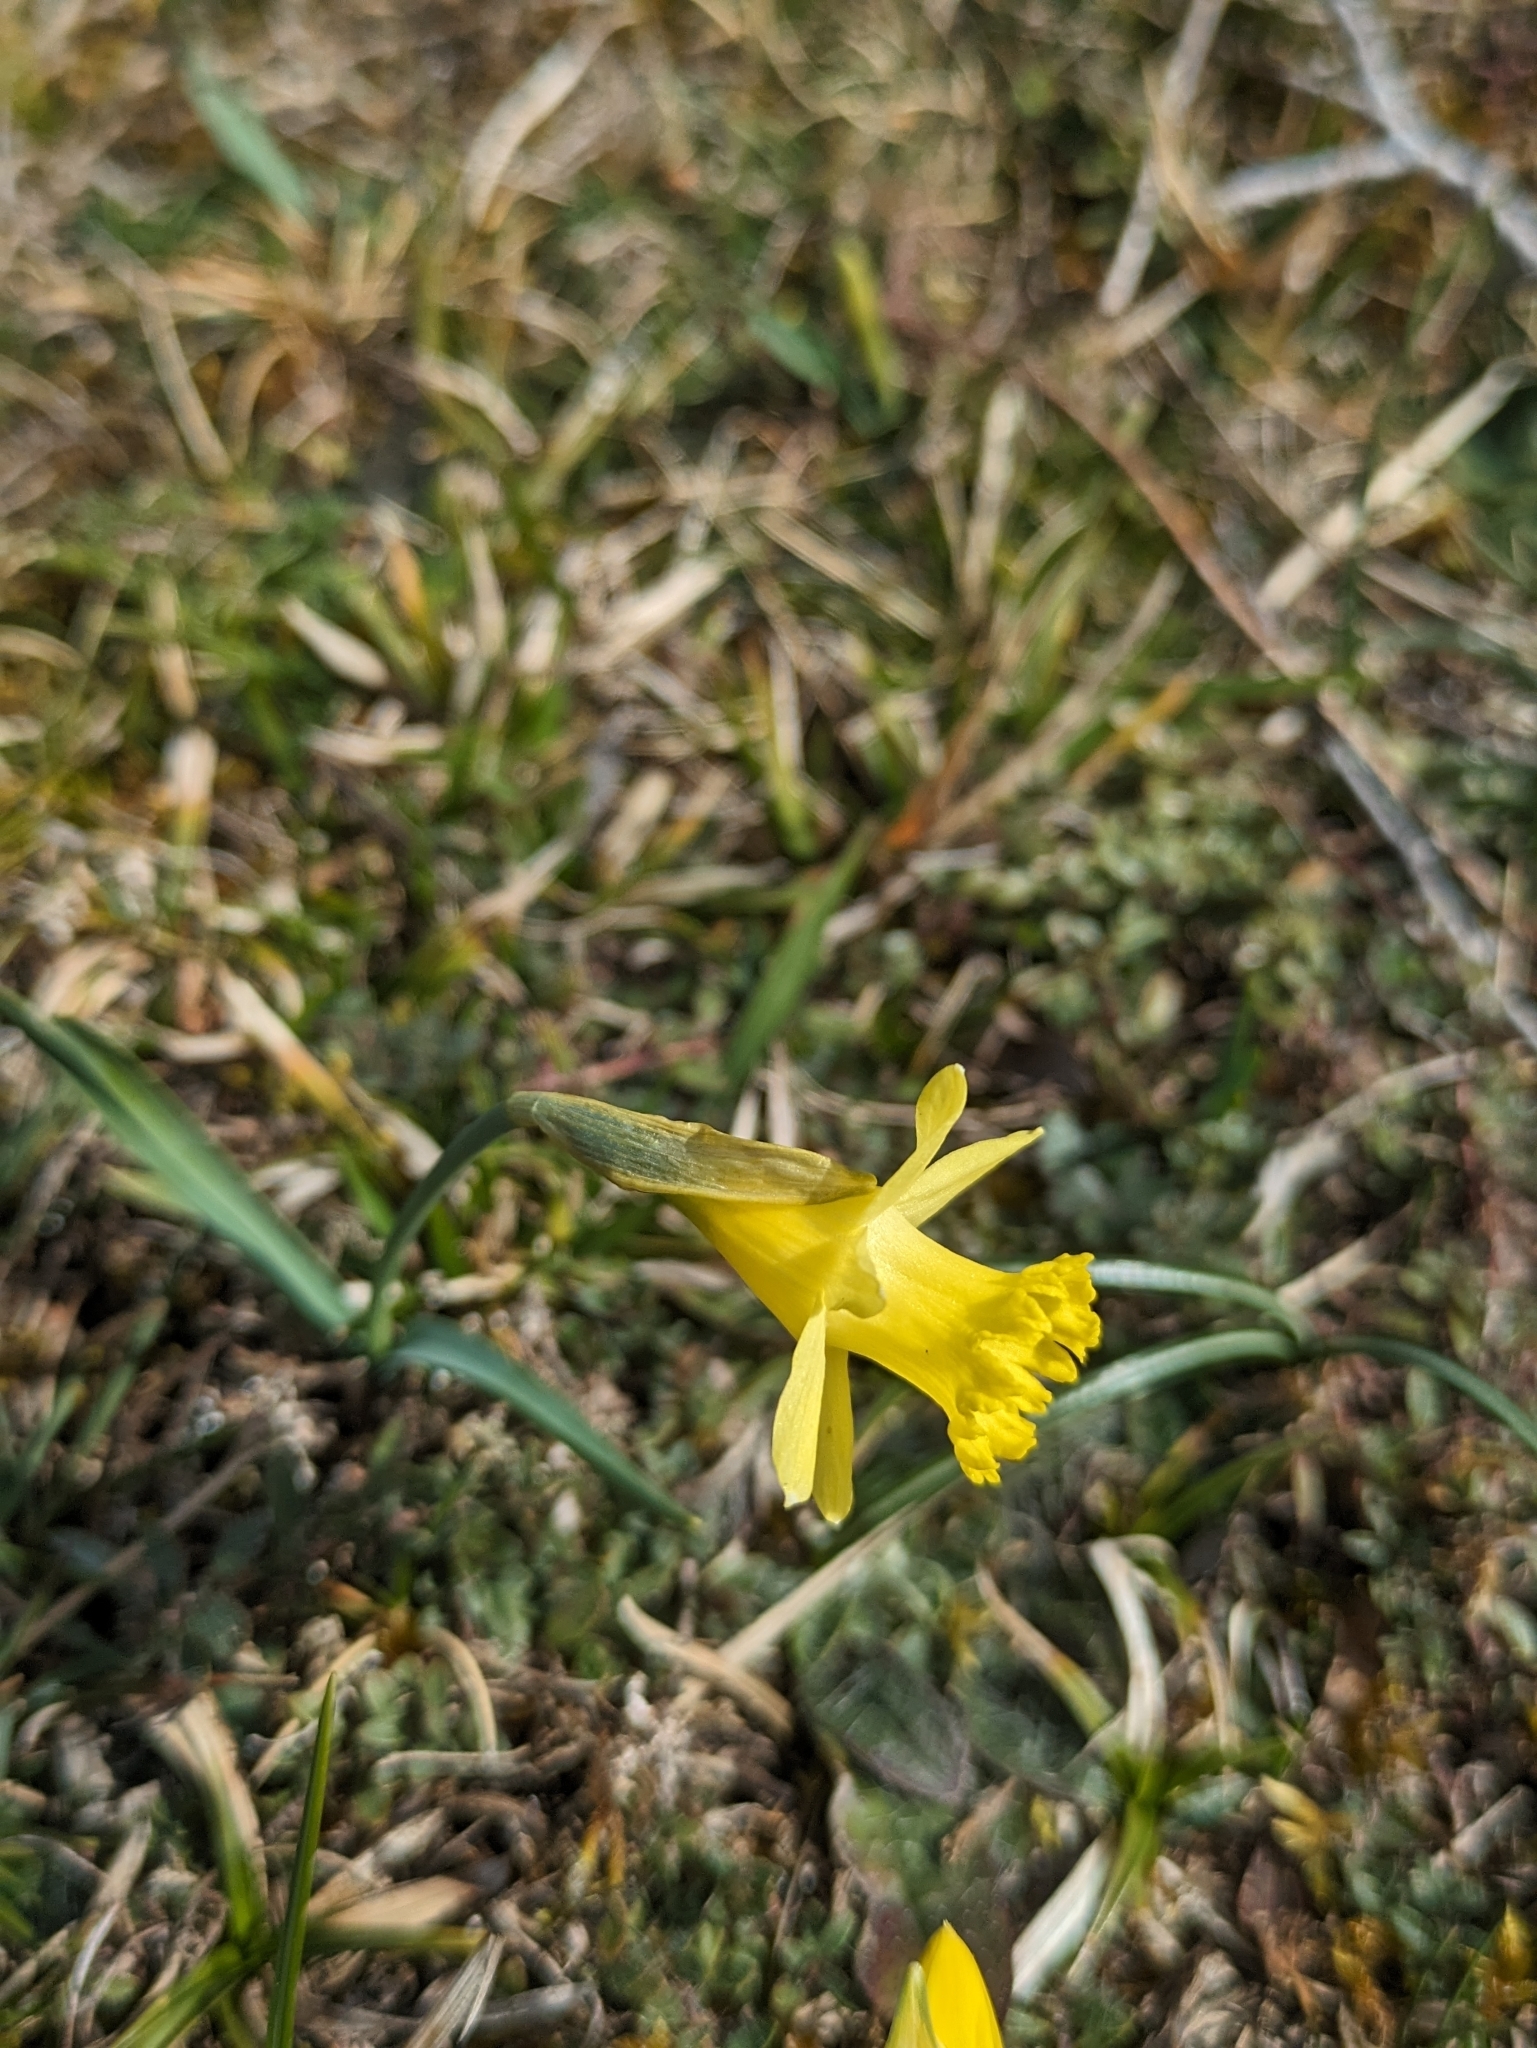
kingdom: Plantae
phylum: Tracheophyta
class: Liliopsida
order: Asparagales
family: Amaryllidaceae
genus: Narcissus
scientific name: Narcissus minor
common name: Lesser daffodil
